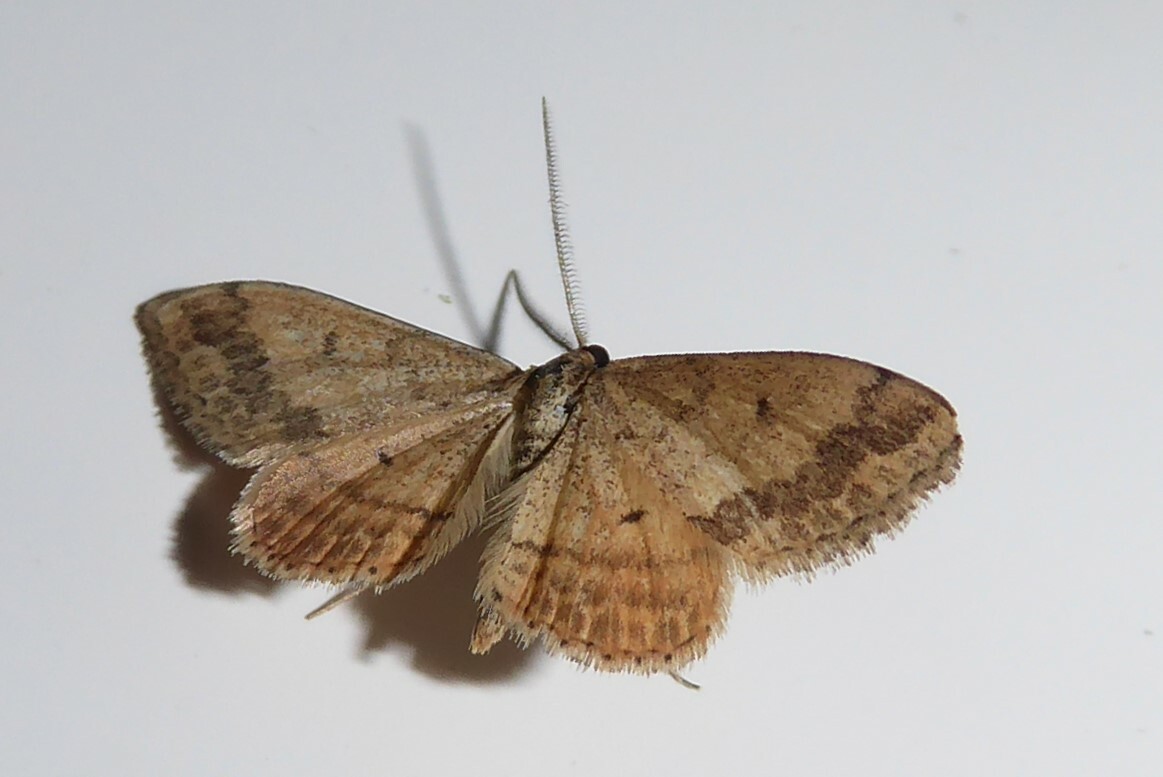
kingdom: Animalia
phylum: Arthropoda
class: Insecta
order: Lepidoptera
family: Geometridae
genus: Scopula
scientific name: Scopula rubraria
